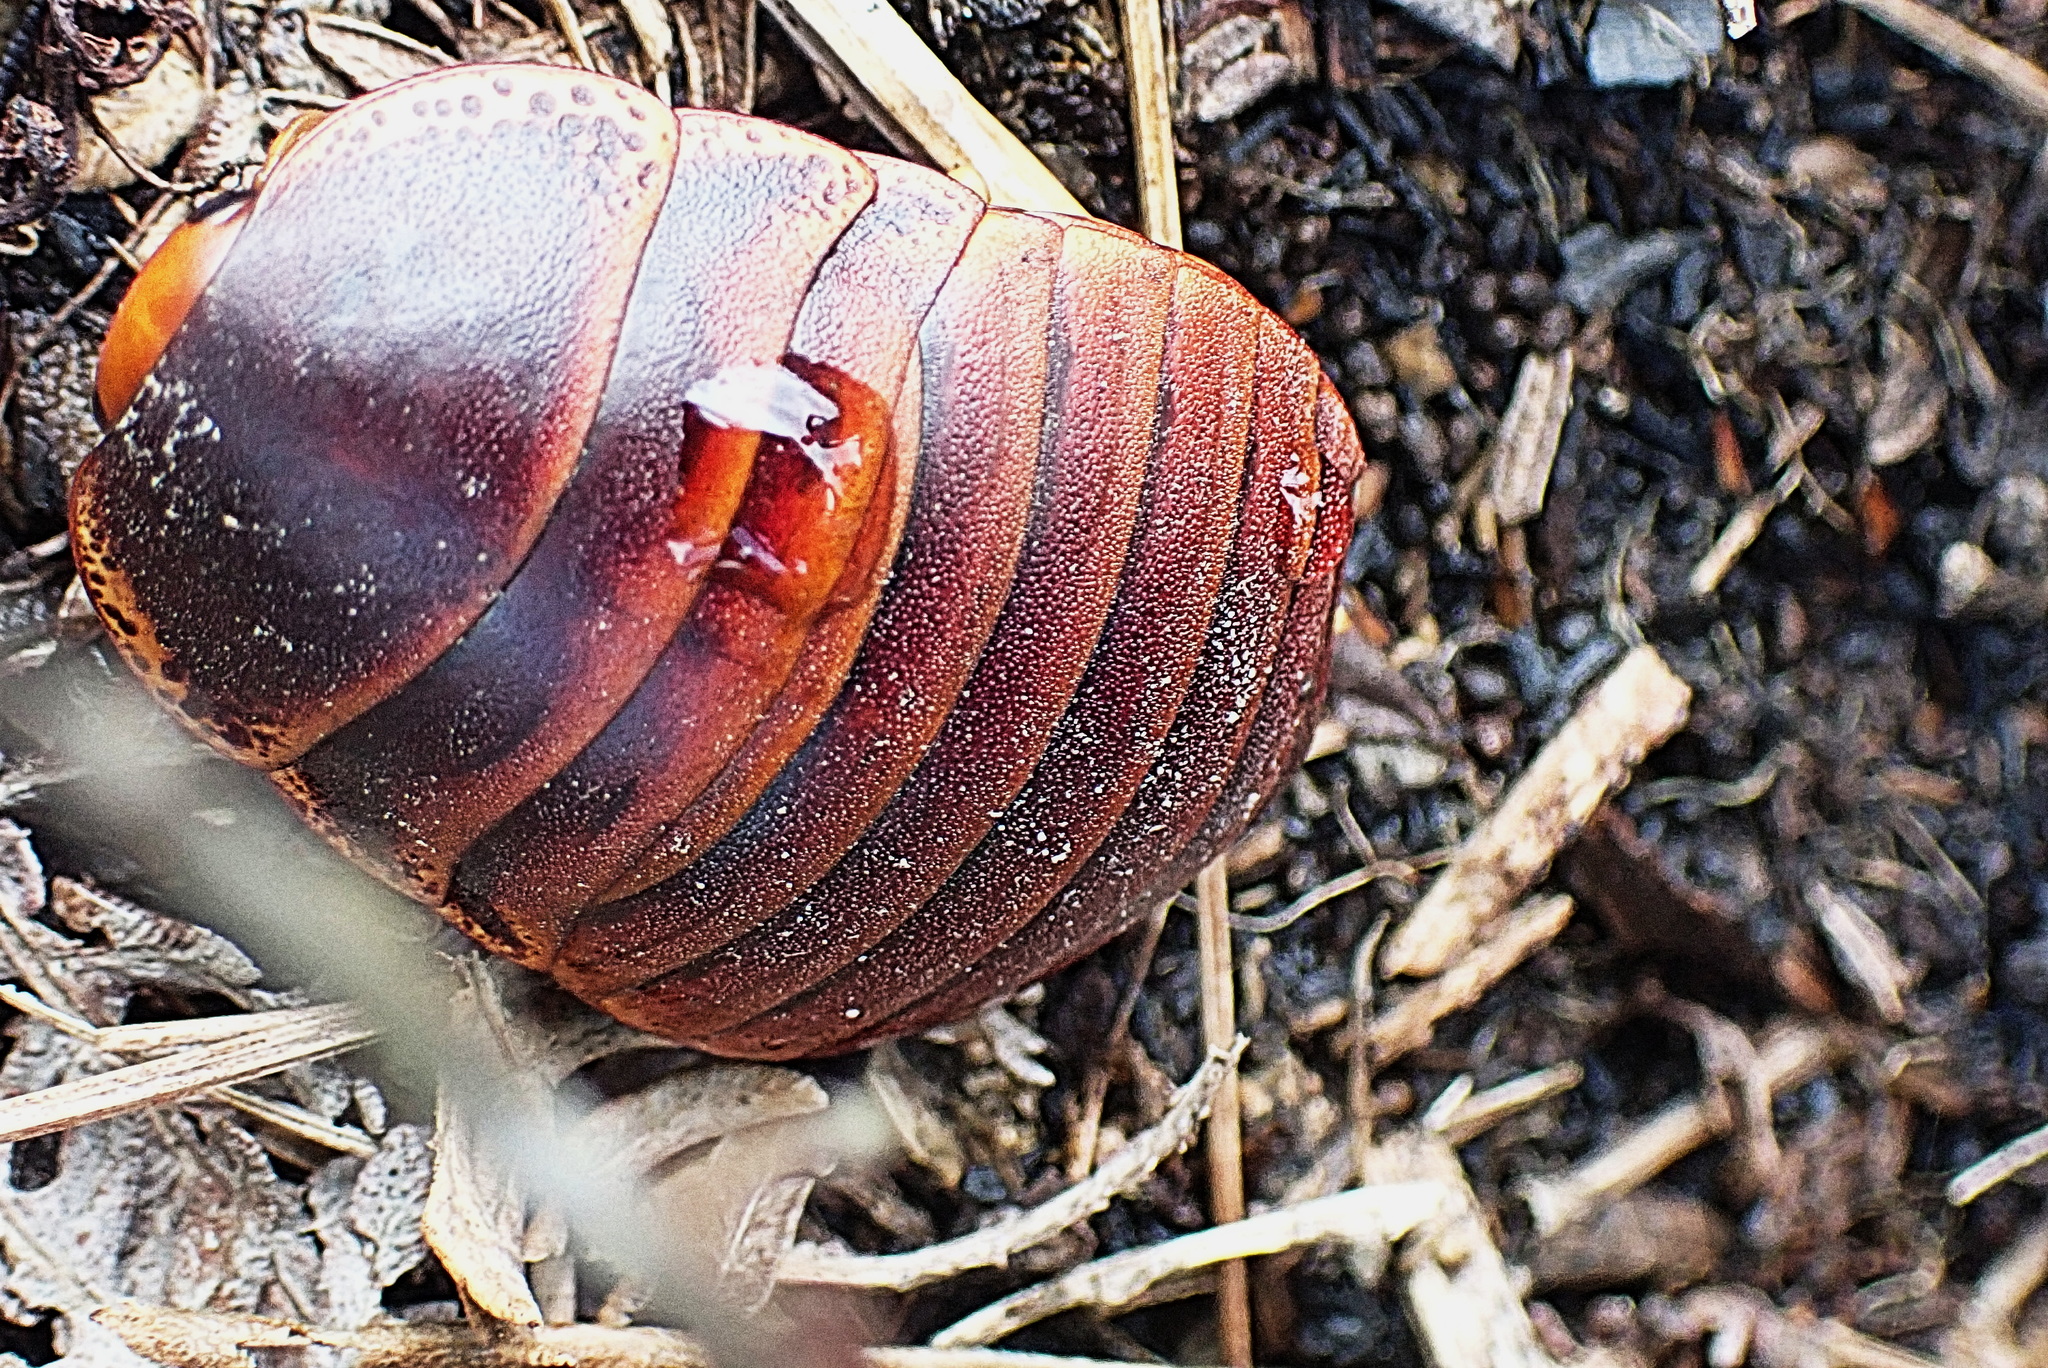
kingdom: Animalia
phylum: Arthropoda
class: Insecta
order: Blattodea
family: Blaberidae
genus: Aptera
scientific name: Aptera fusca
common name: Cape mountain cockroach
